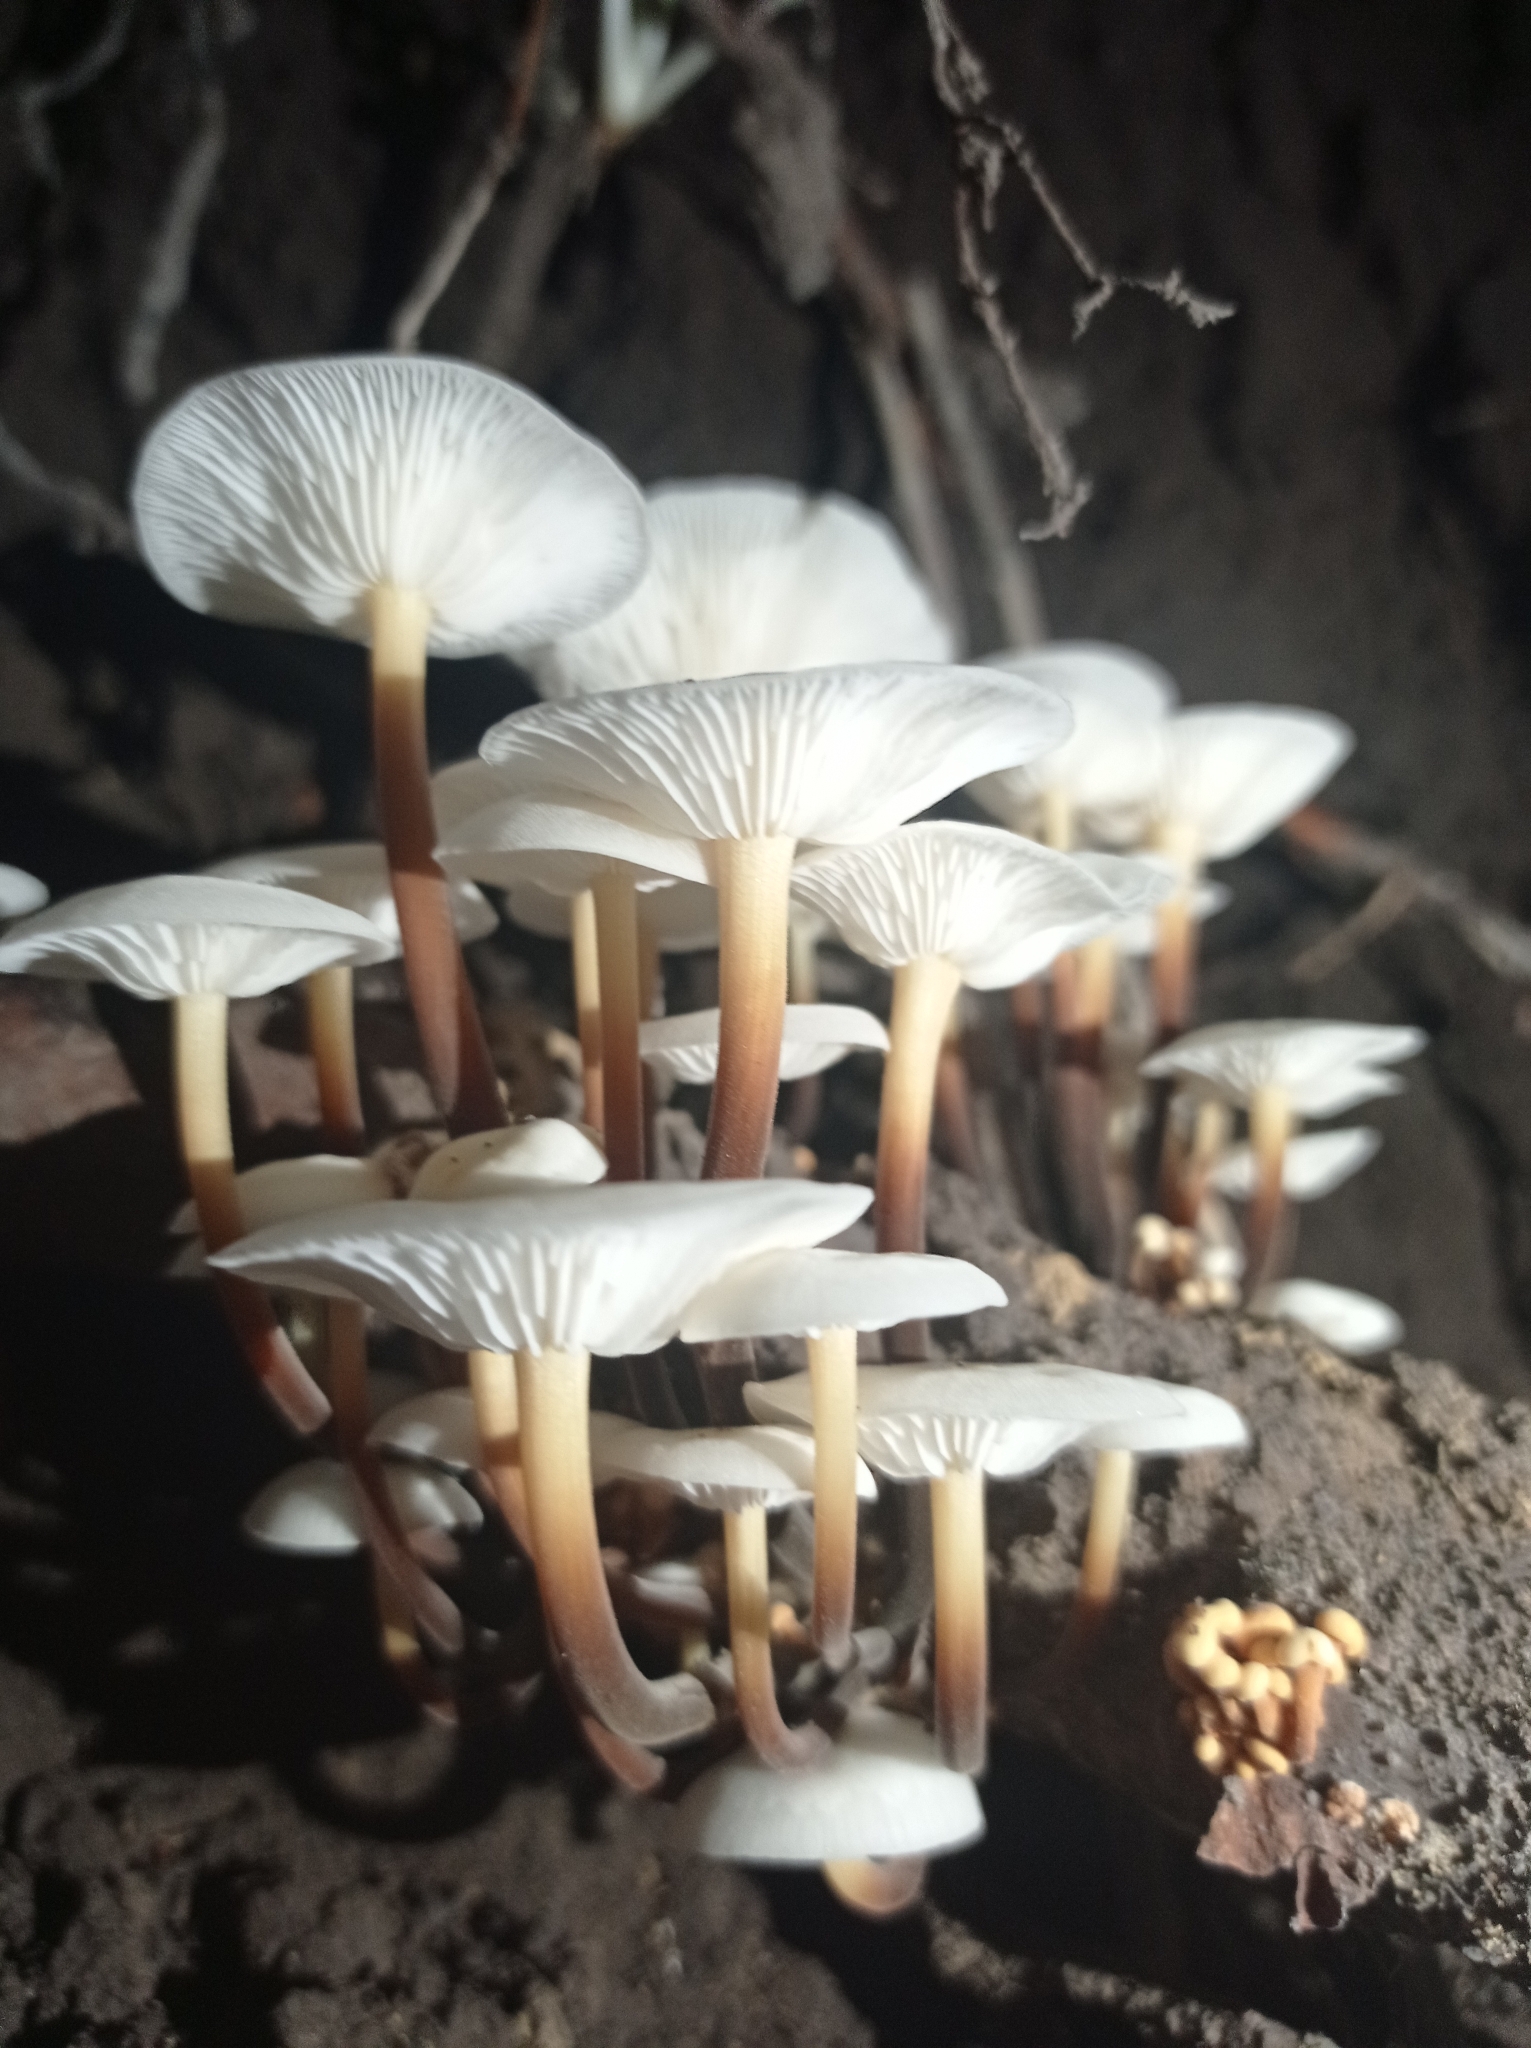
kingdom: Fungi
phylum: Basidiomycota
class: Agaricomycetes
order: Agaricales
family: Physalacriaceae
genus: Flammulina
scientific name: Flammulina
